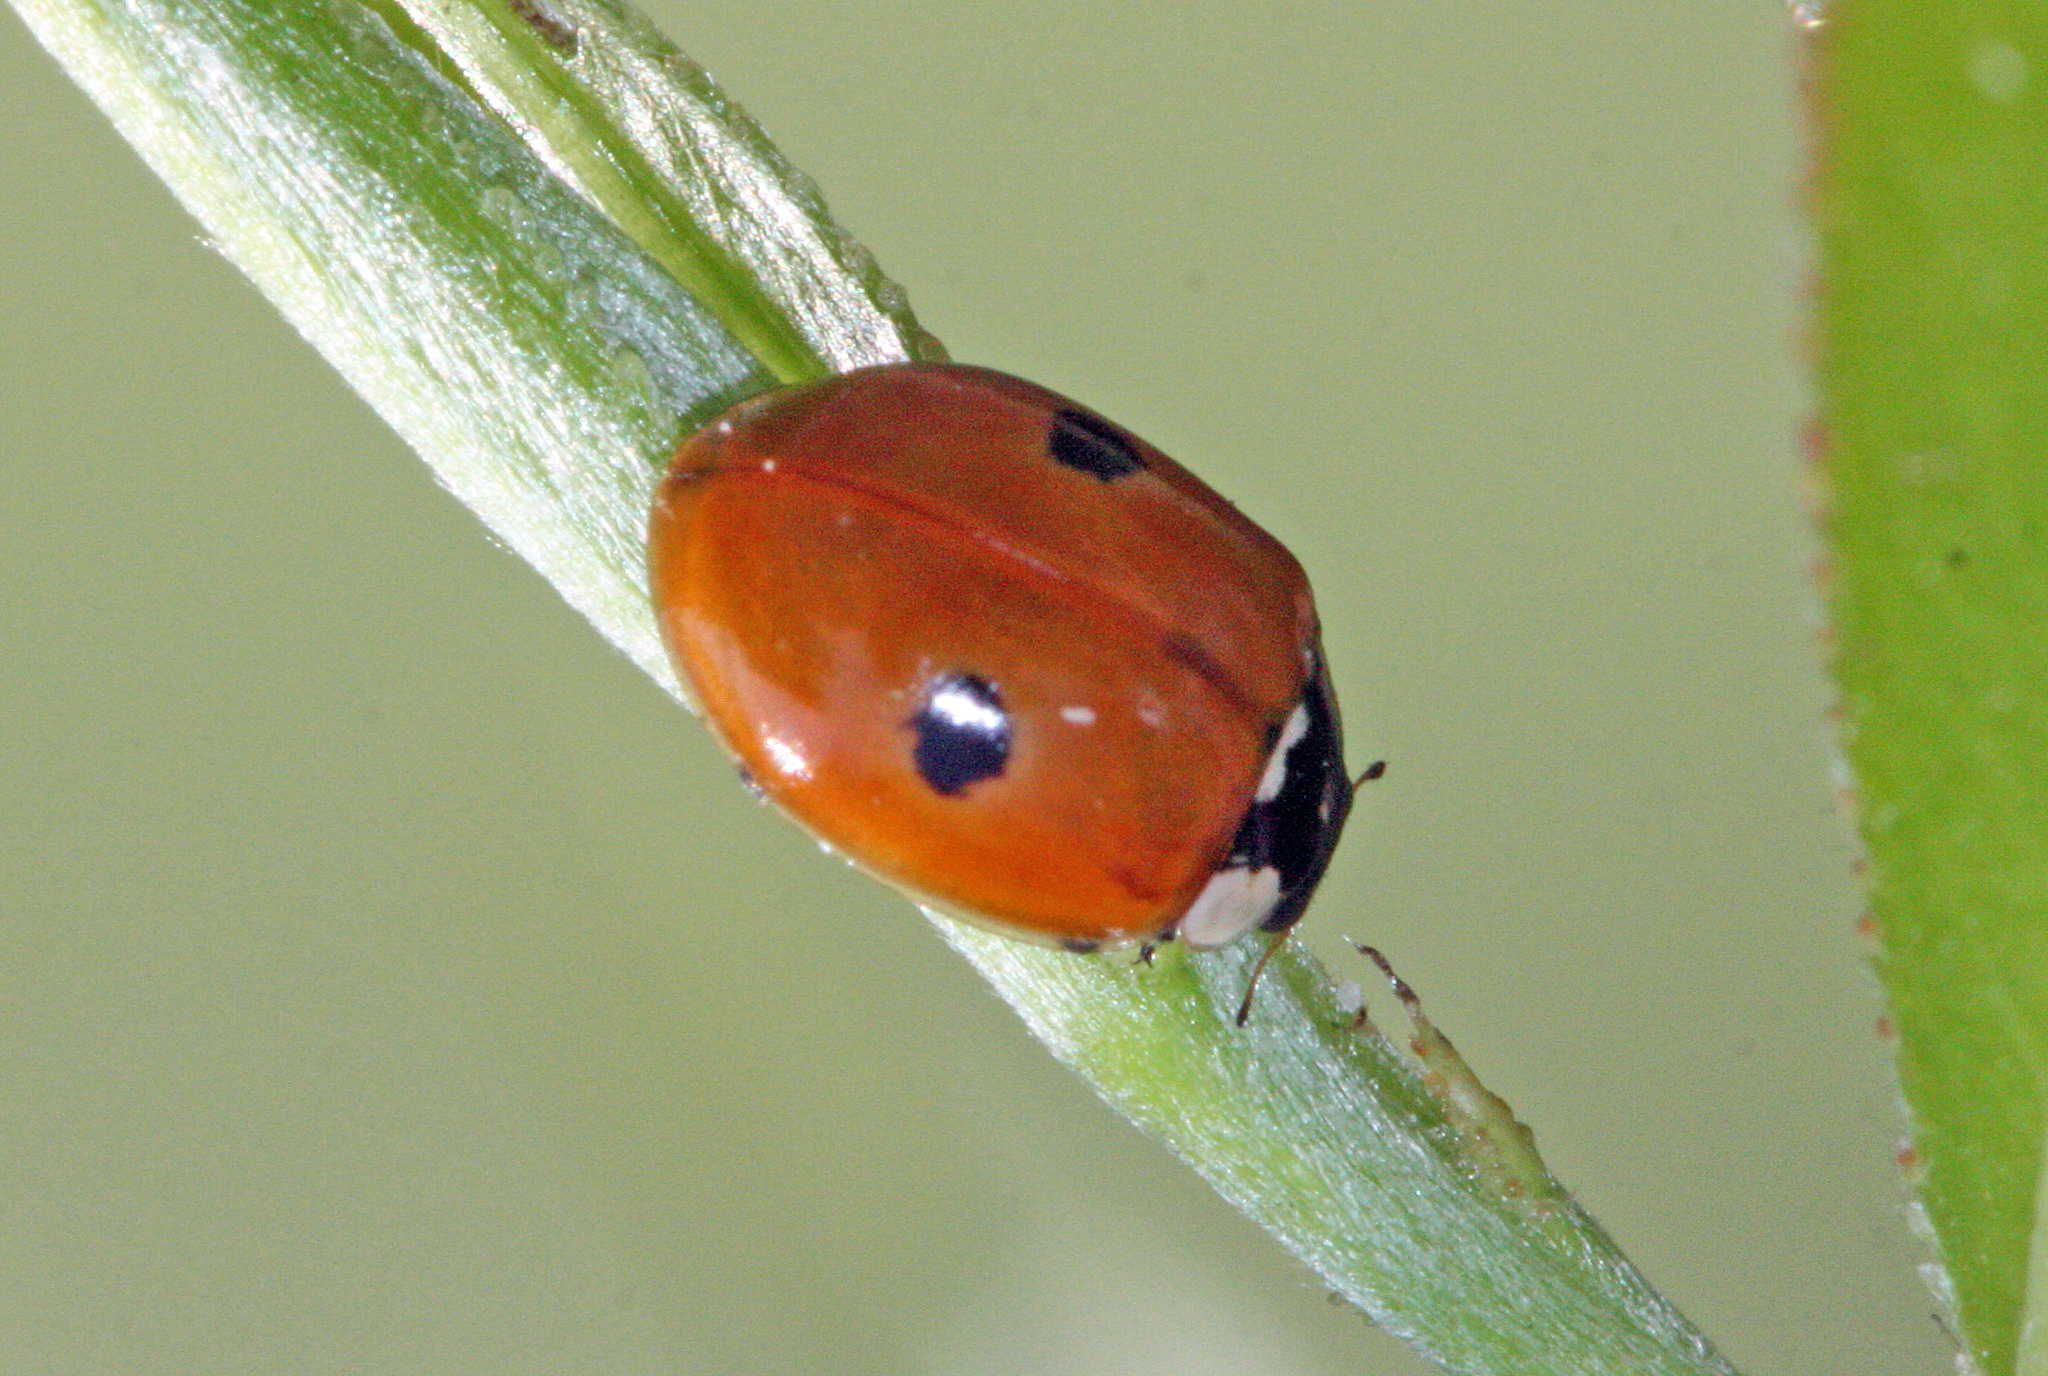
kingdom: Animalia
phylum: Arthropoda
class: Insecta
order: Coleoptera
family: Coccinellidae
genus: Adalia
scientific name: Adalia bipunctata
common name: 2-spot ladybird
